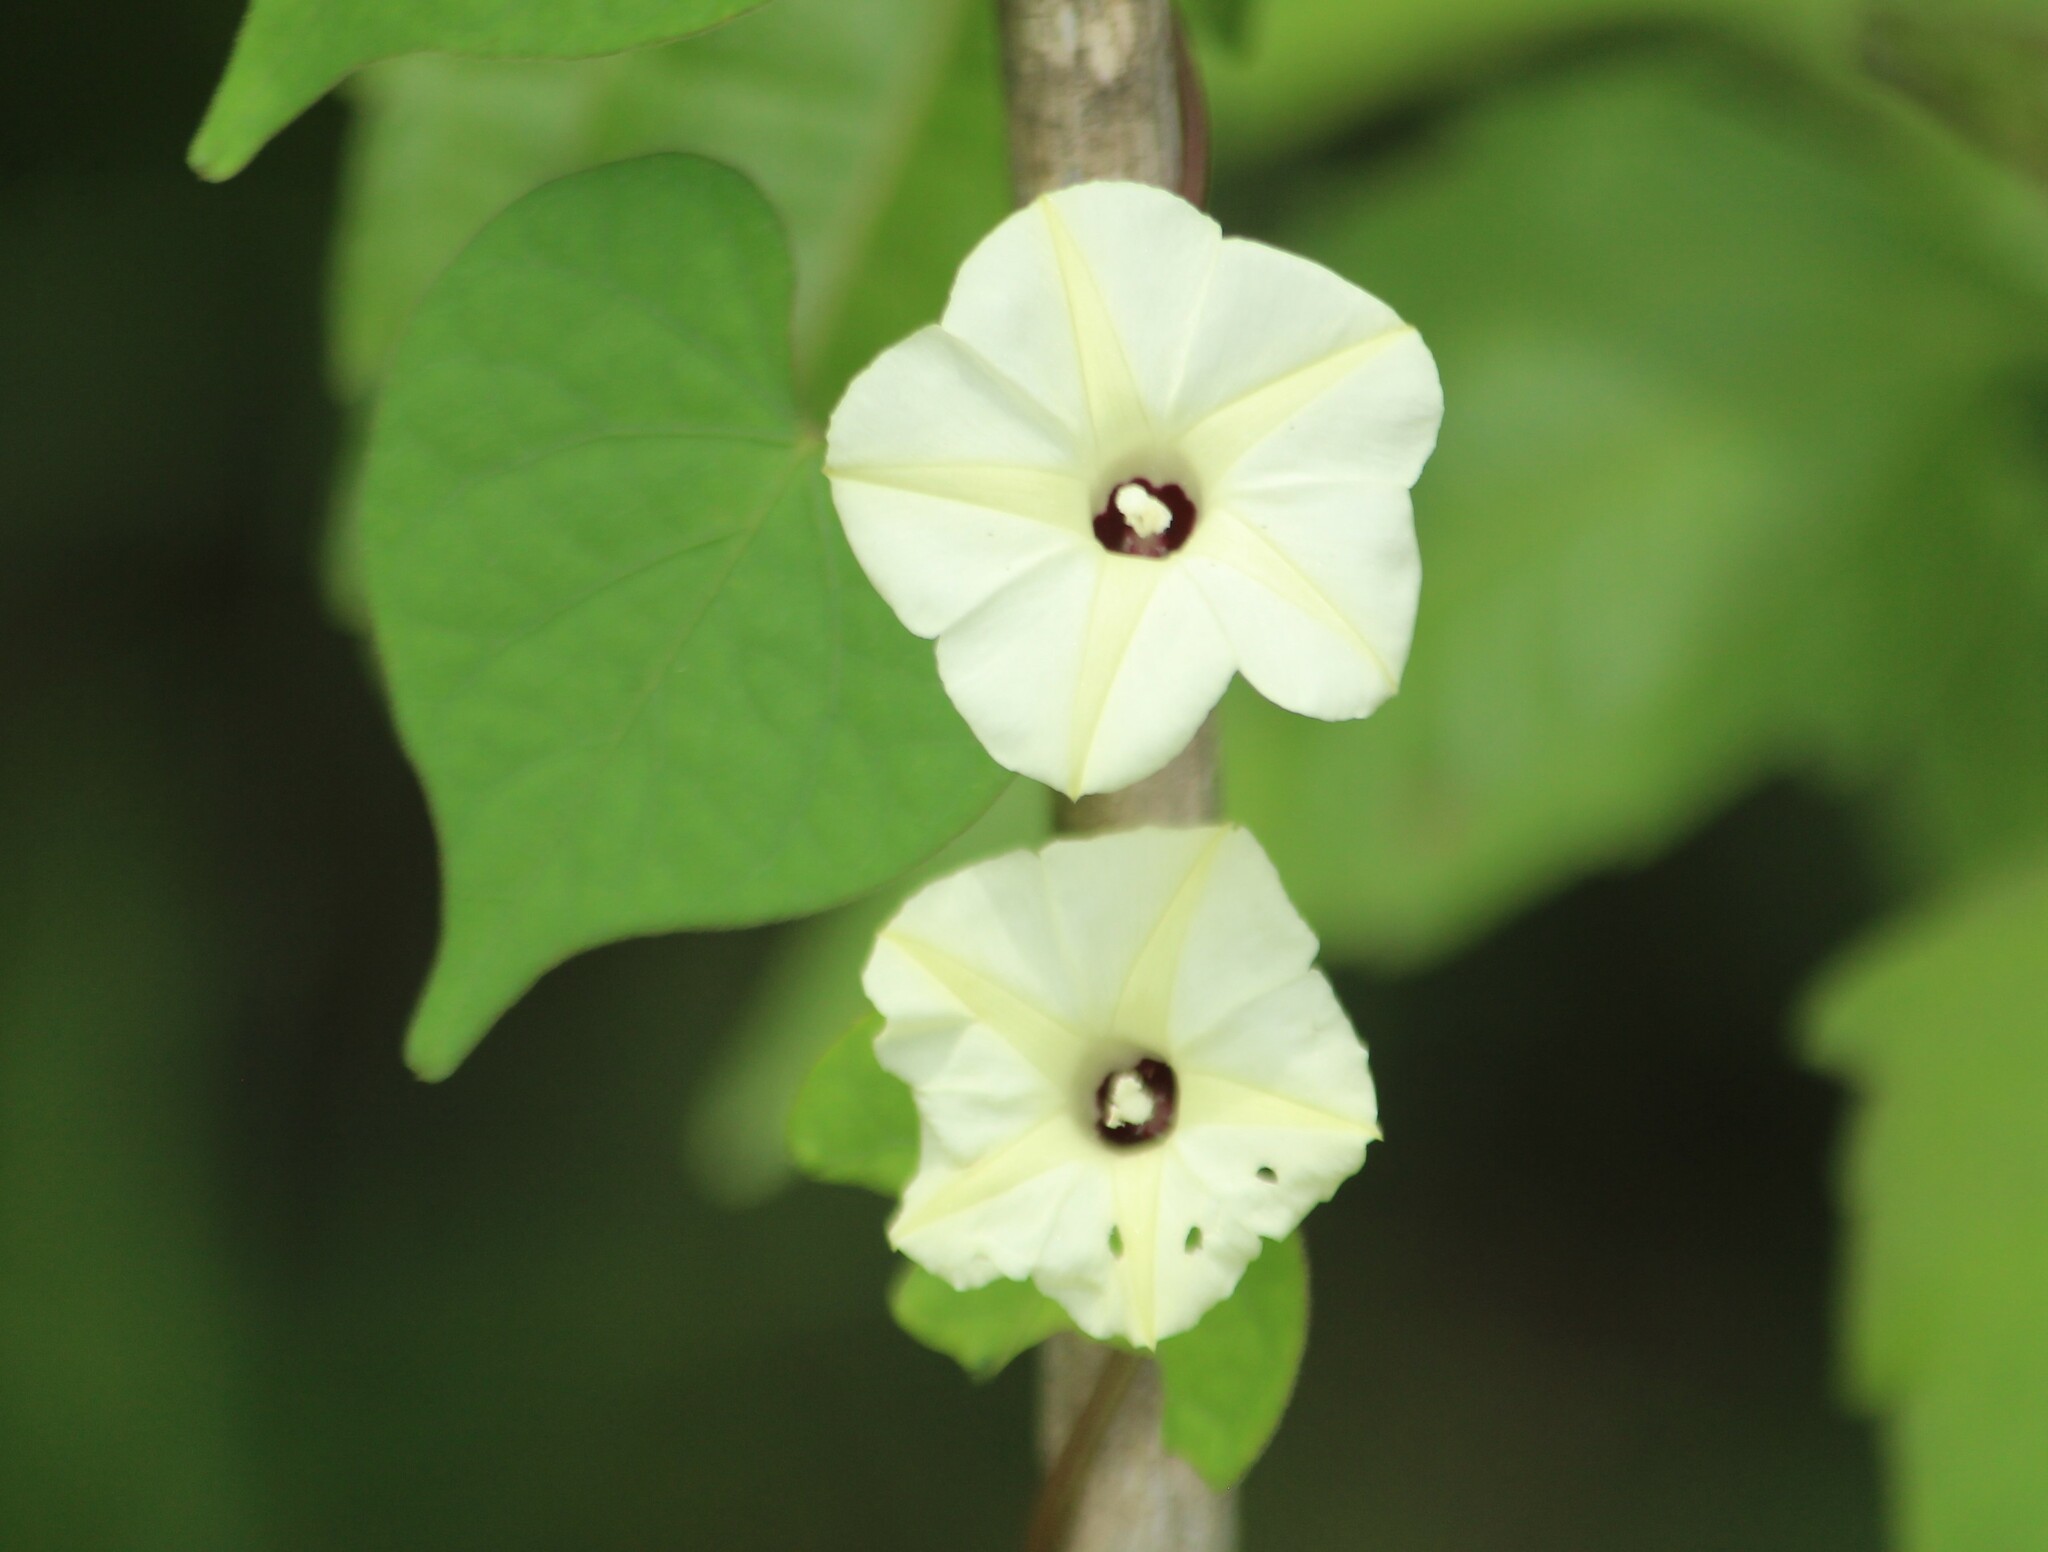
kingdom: Plantae
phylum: Tracheophyta
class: Magnoliopsida
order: Solanales
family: Convolvulaceae
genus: Ipomoea
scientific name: Ipomoea obscura
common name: Obscure morning-glory
